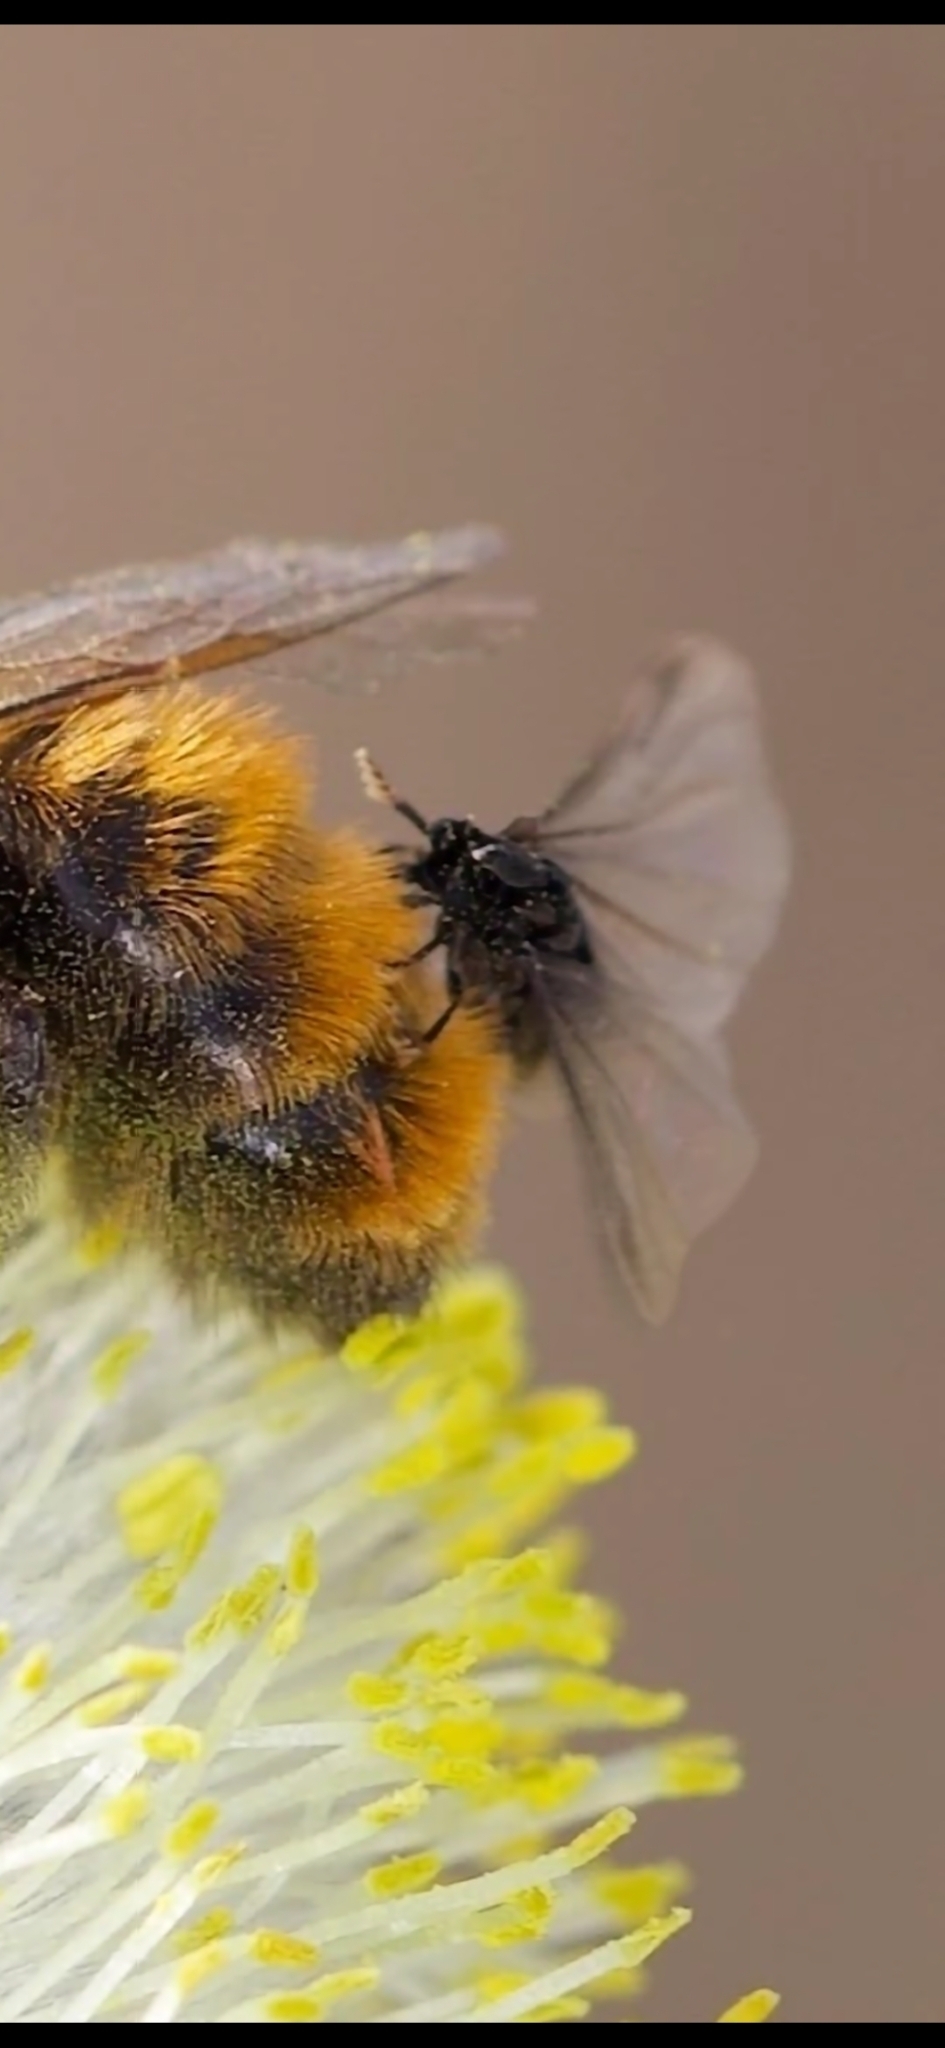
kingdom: Animalia
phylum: Arthropoda
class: Insecta
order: Strepsiptera
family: Stylopidae
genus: Stylops
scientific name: Stylops nevinsoni
